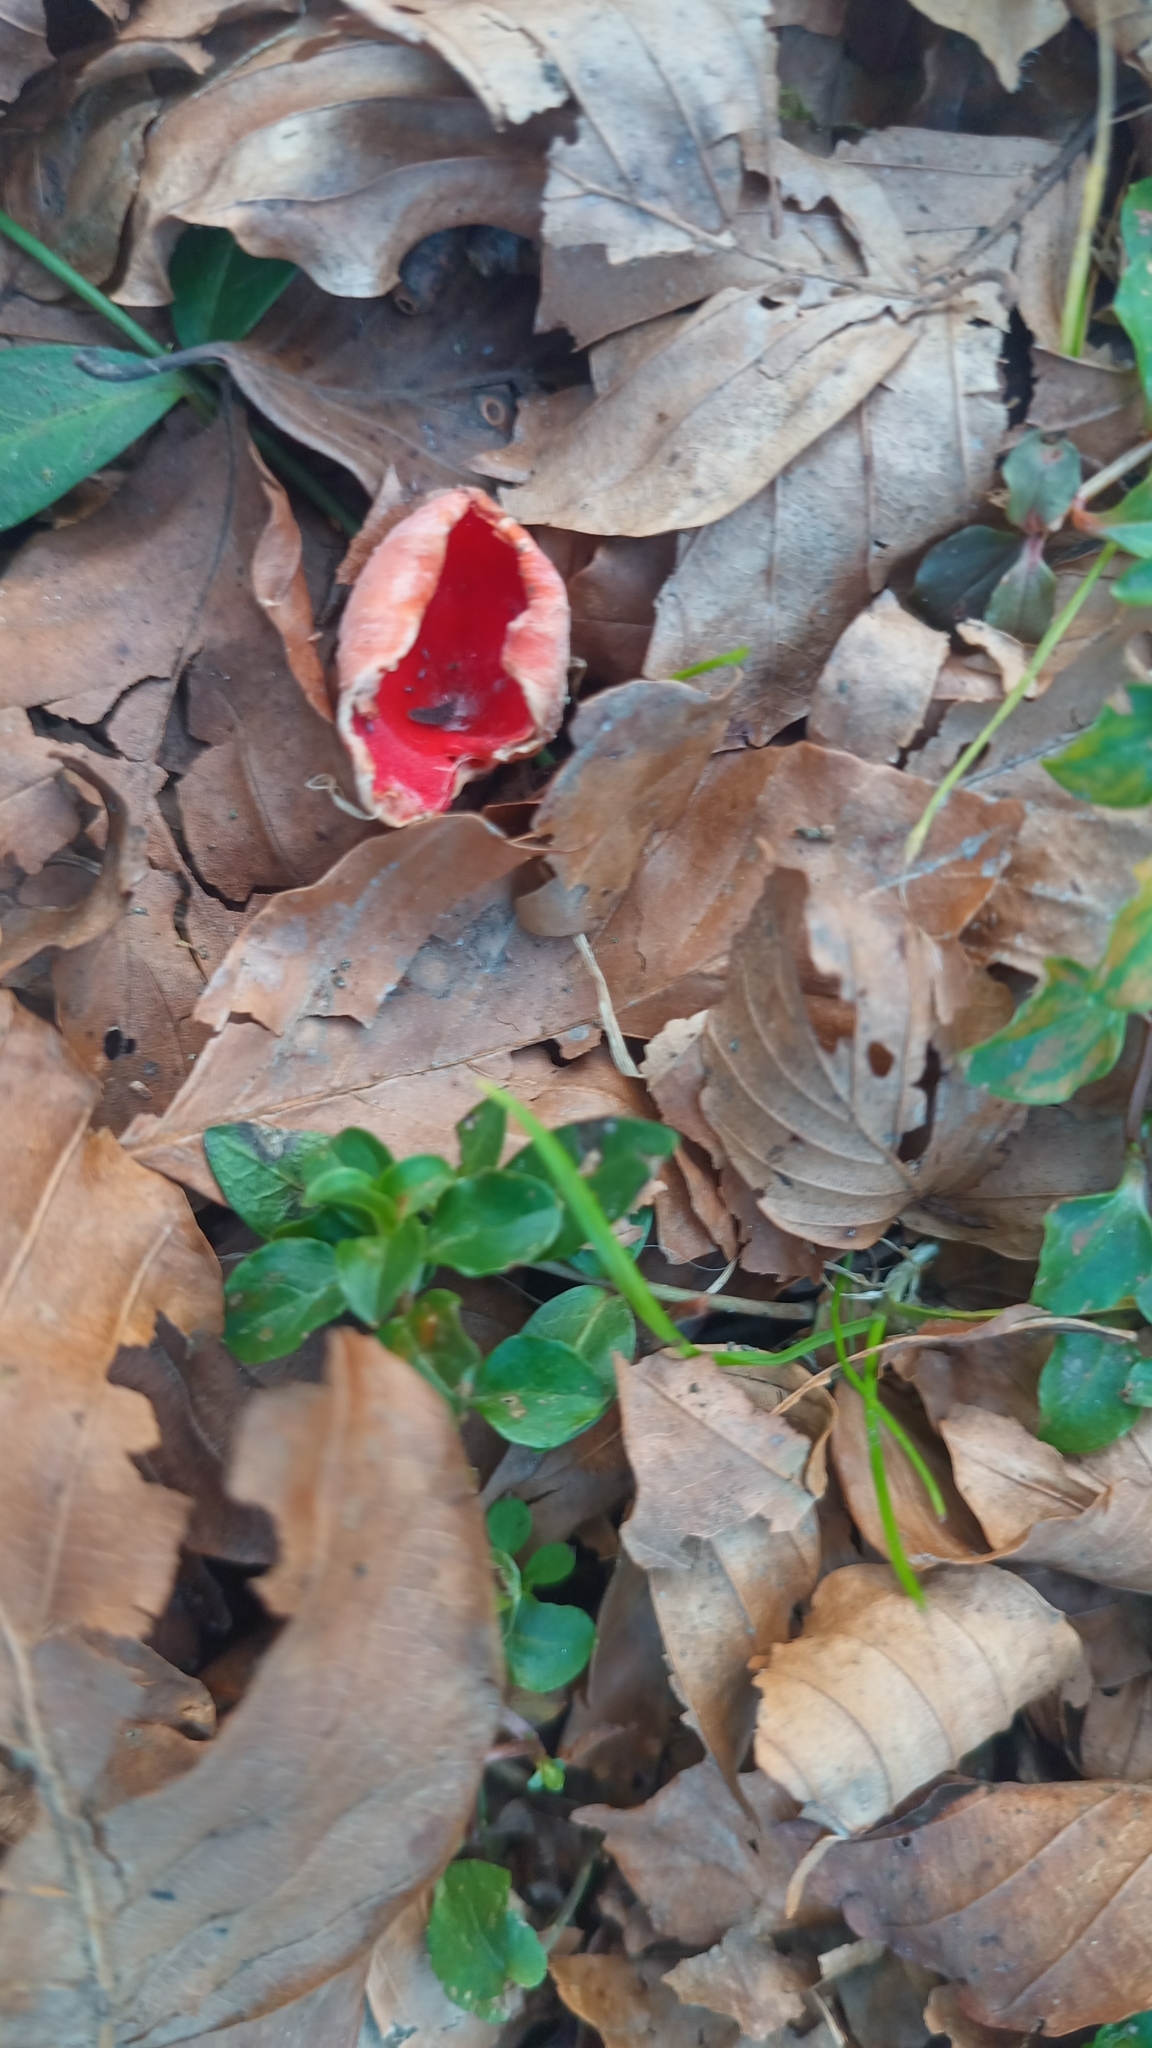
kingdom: Fungi
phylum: Ascomycota
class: Pezizomycetes
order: Pezizales
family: Sarcoscyphaceae
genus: Sarcoscypha
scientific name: Sarcoscypha
